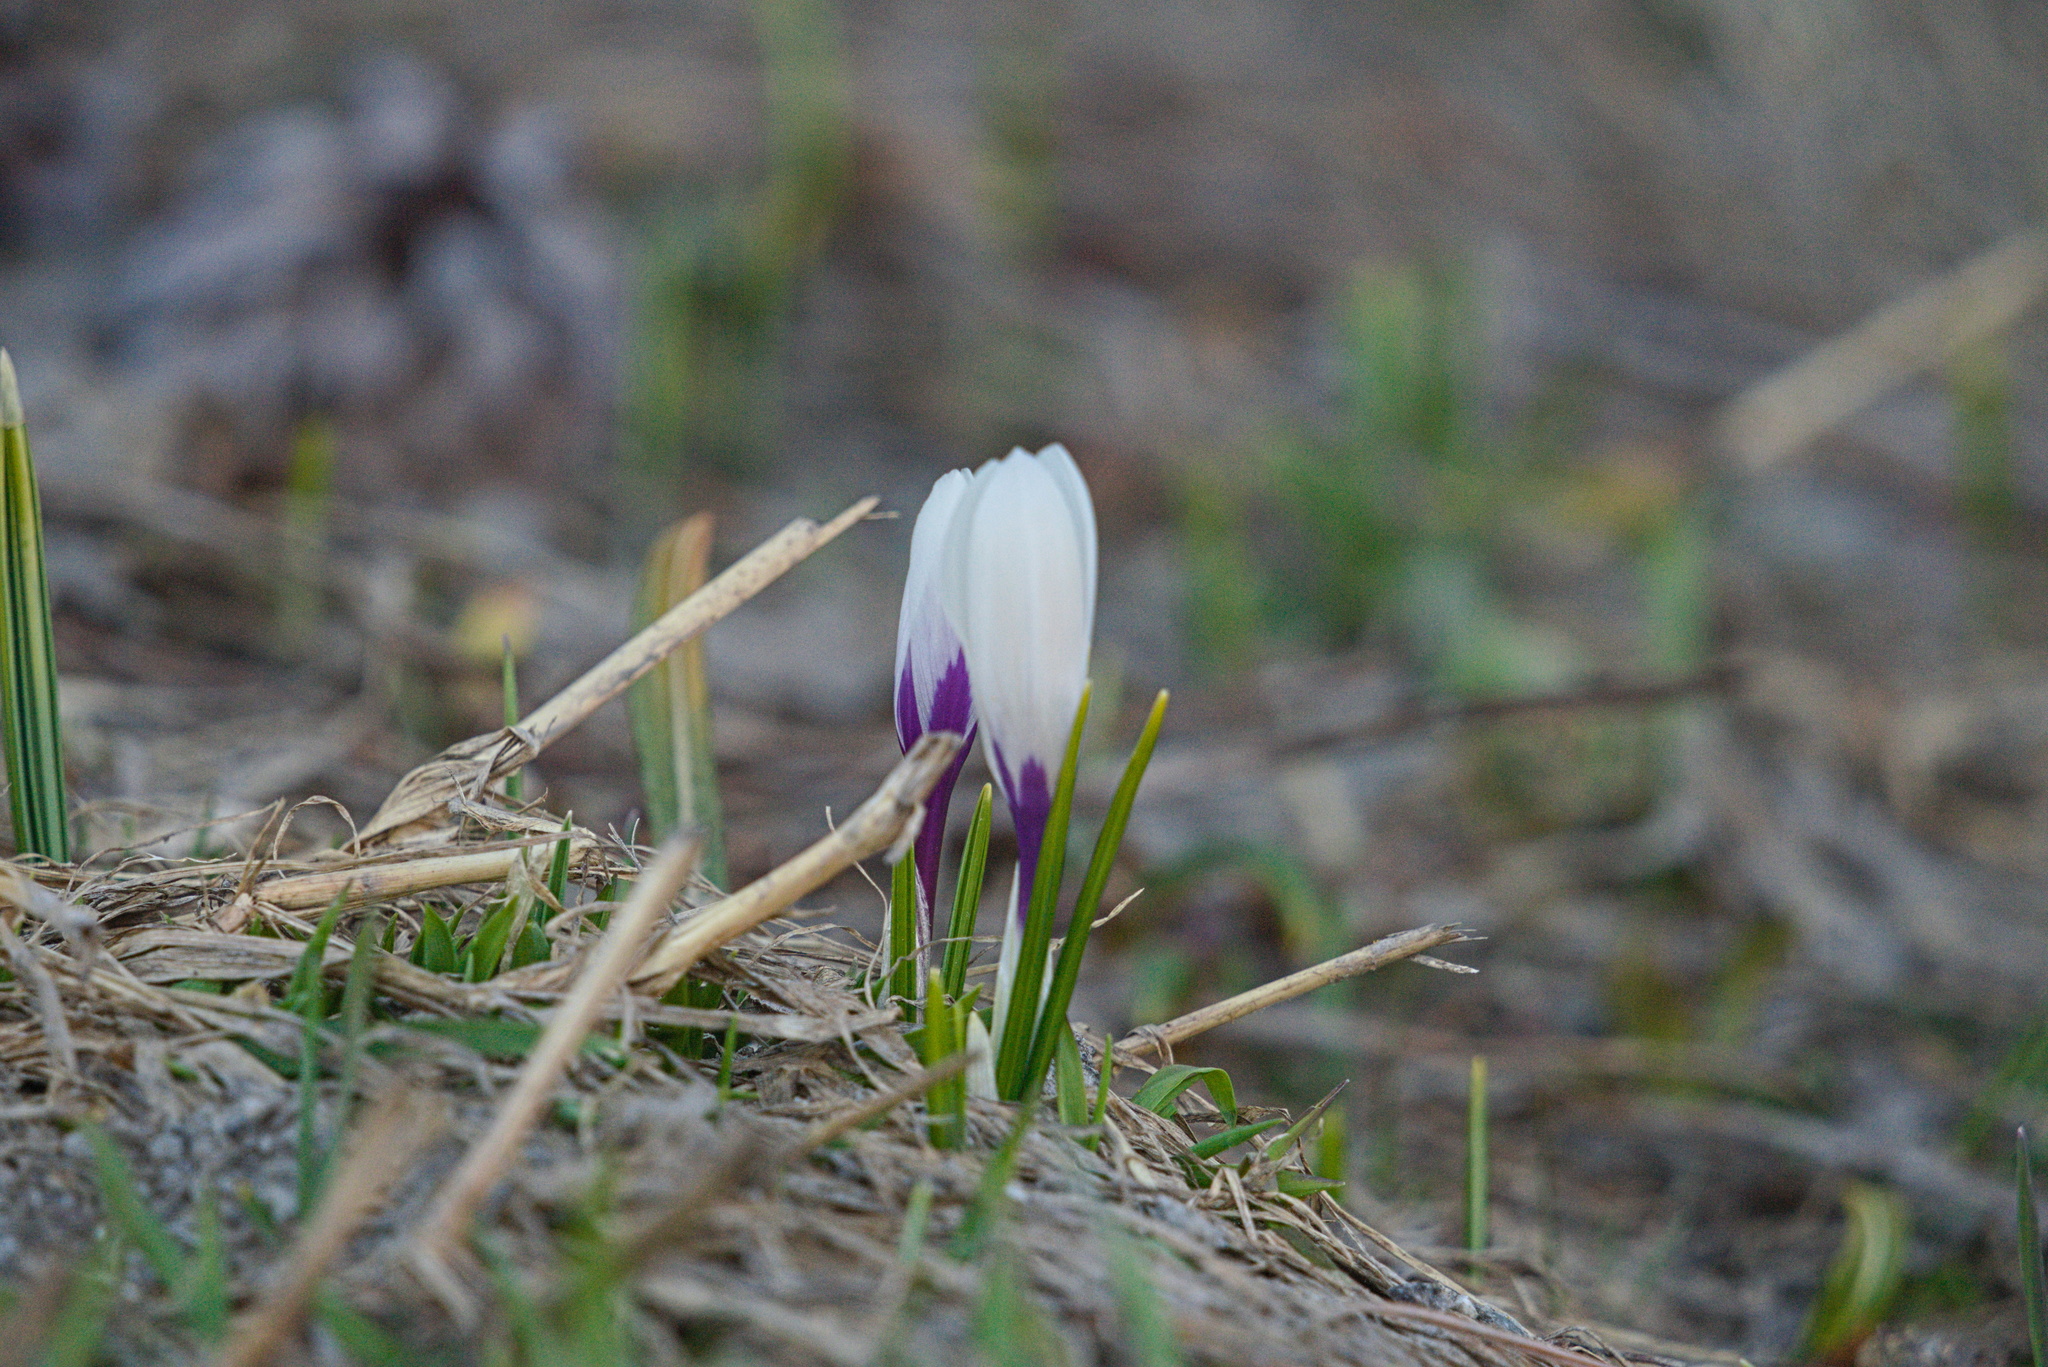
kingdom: Plantae
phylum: Tracheophyta
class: Liliopsida
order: Asparagales
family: Iridaceae
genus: Crocus
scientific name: Crocus vernus
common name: Spring crocus
